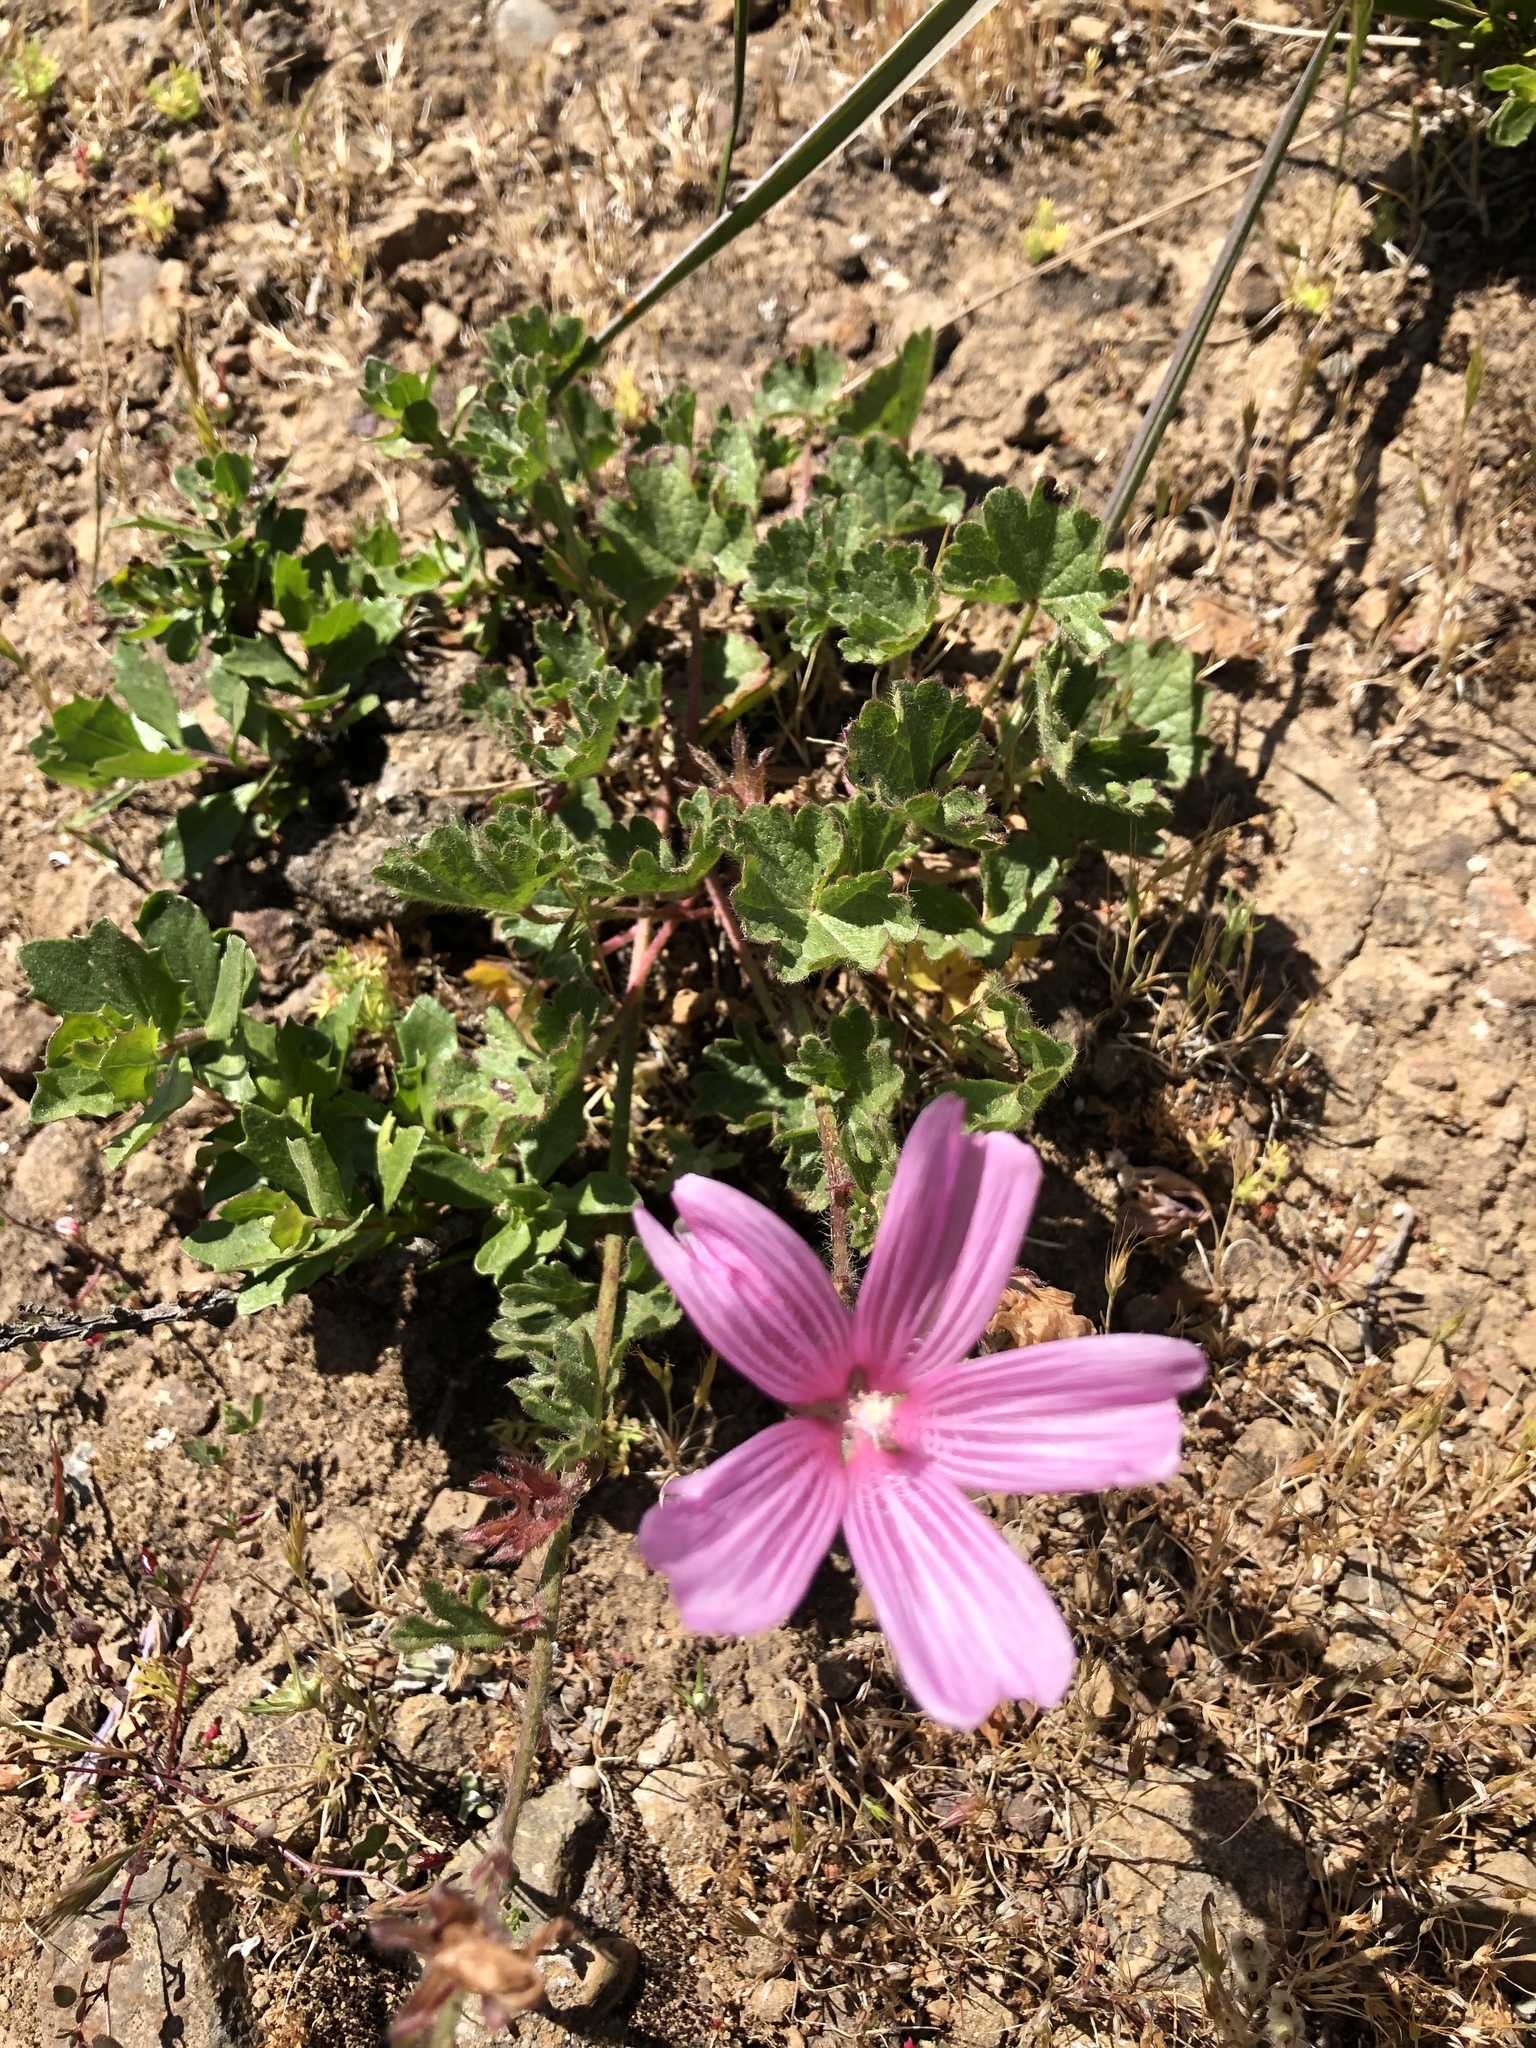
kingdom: Plantae
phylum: Tracheophyta
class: Magnoliopsida
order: Malvales
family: Malvaceae
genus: Sidalcea
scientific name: Sidalcea malviflora
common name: Greek mallow
